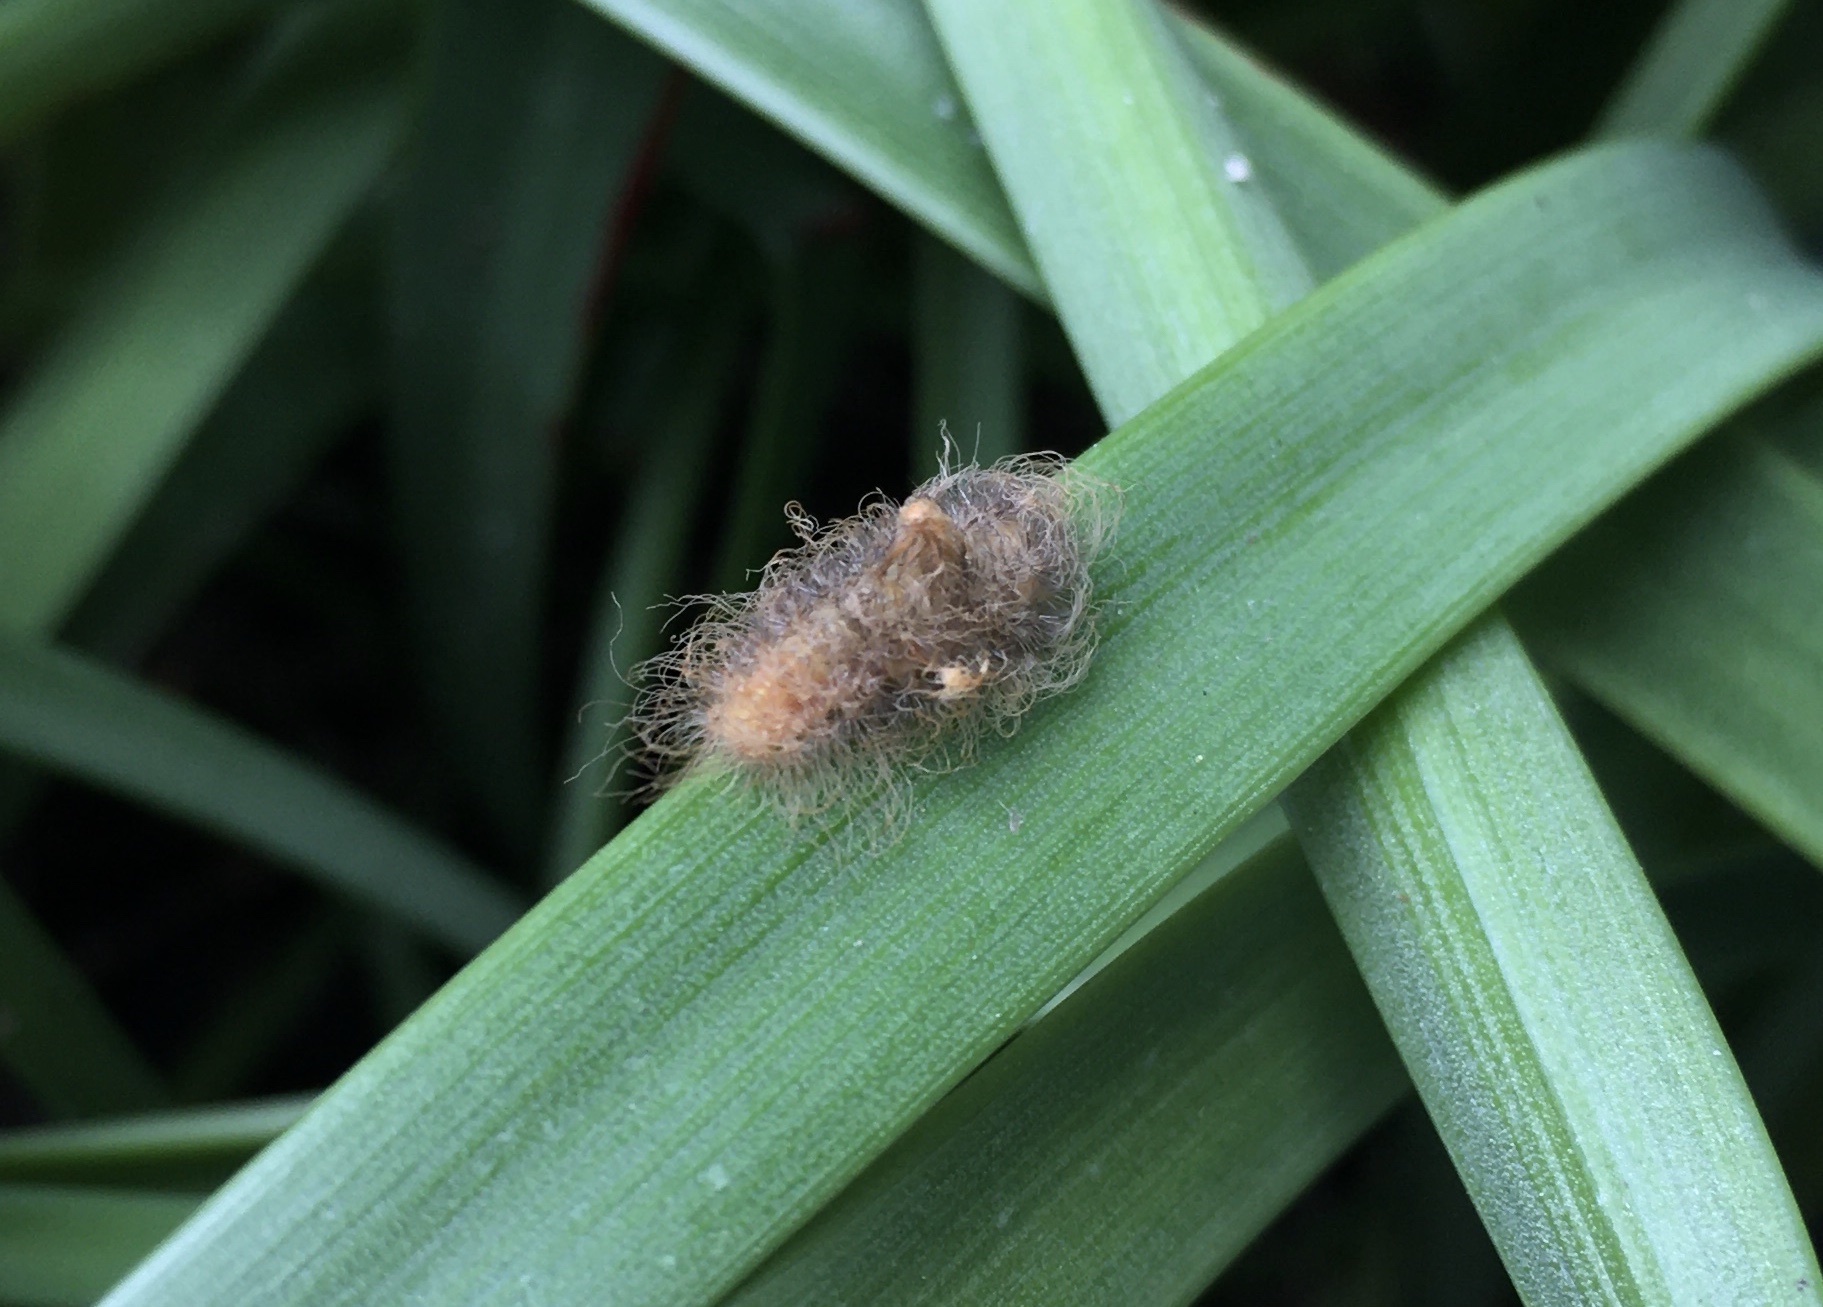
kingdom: Animalia
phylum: Arthropoda
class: Insecta
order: Lepidoptera
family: Megalopygidae
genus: Megalopyge
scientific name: Megalopyge opercularis
